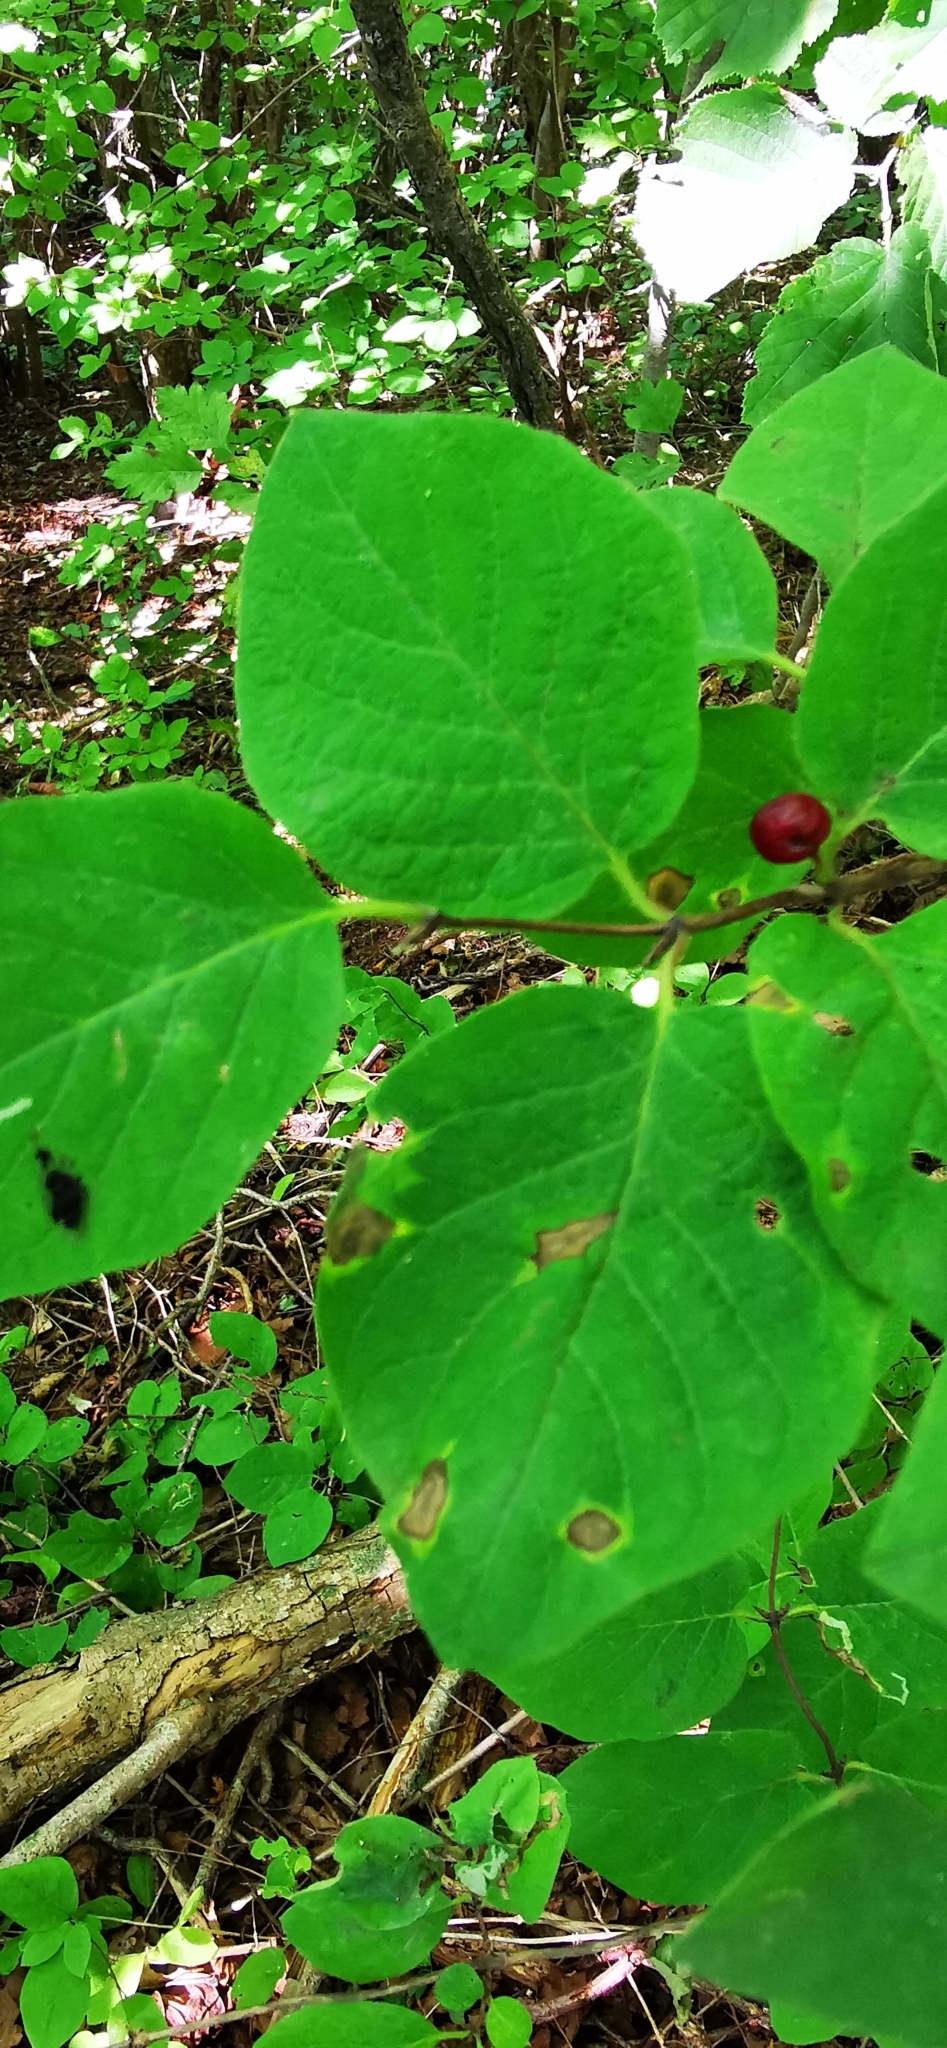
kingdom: Plantae
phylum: Tracheophyta
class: Magnoliopsida
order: Dipsacales
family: Caprifoliaceae
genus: Lonicera
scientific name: Lonicera xylosteum
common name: Fly honeysuckle
